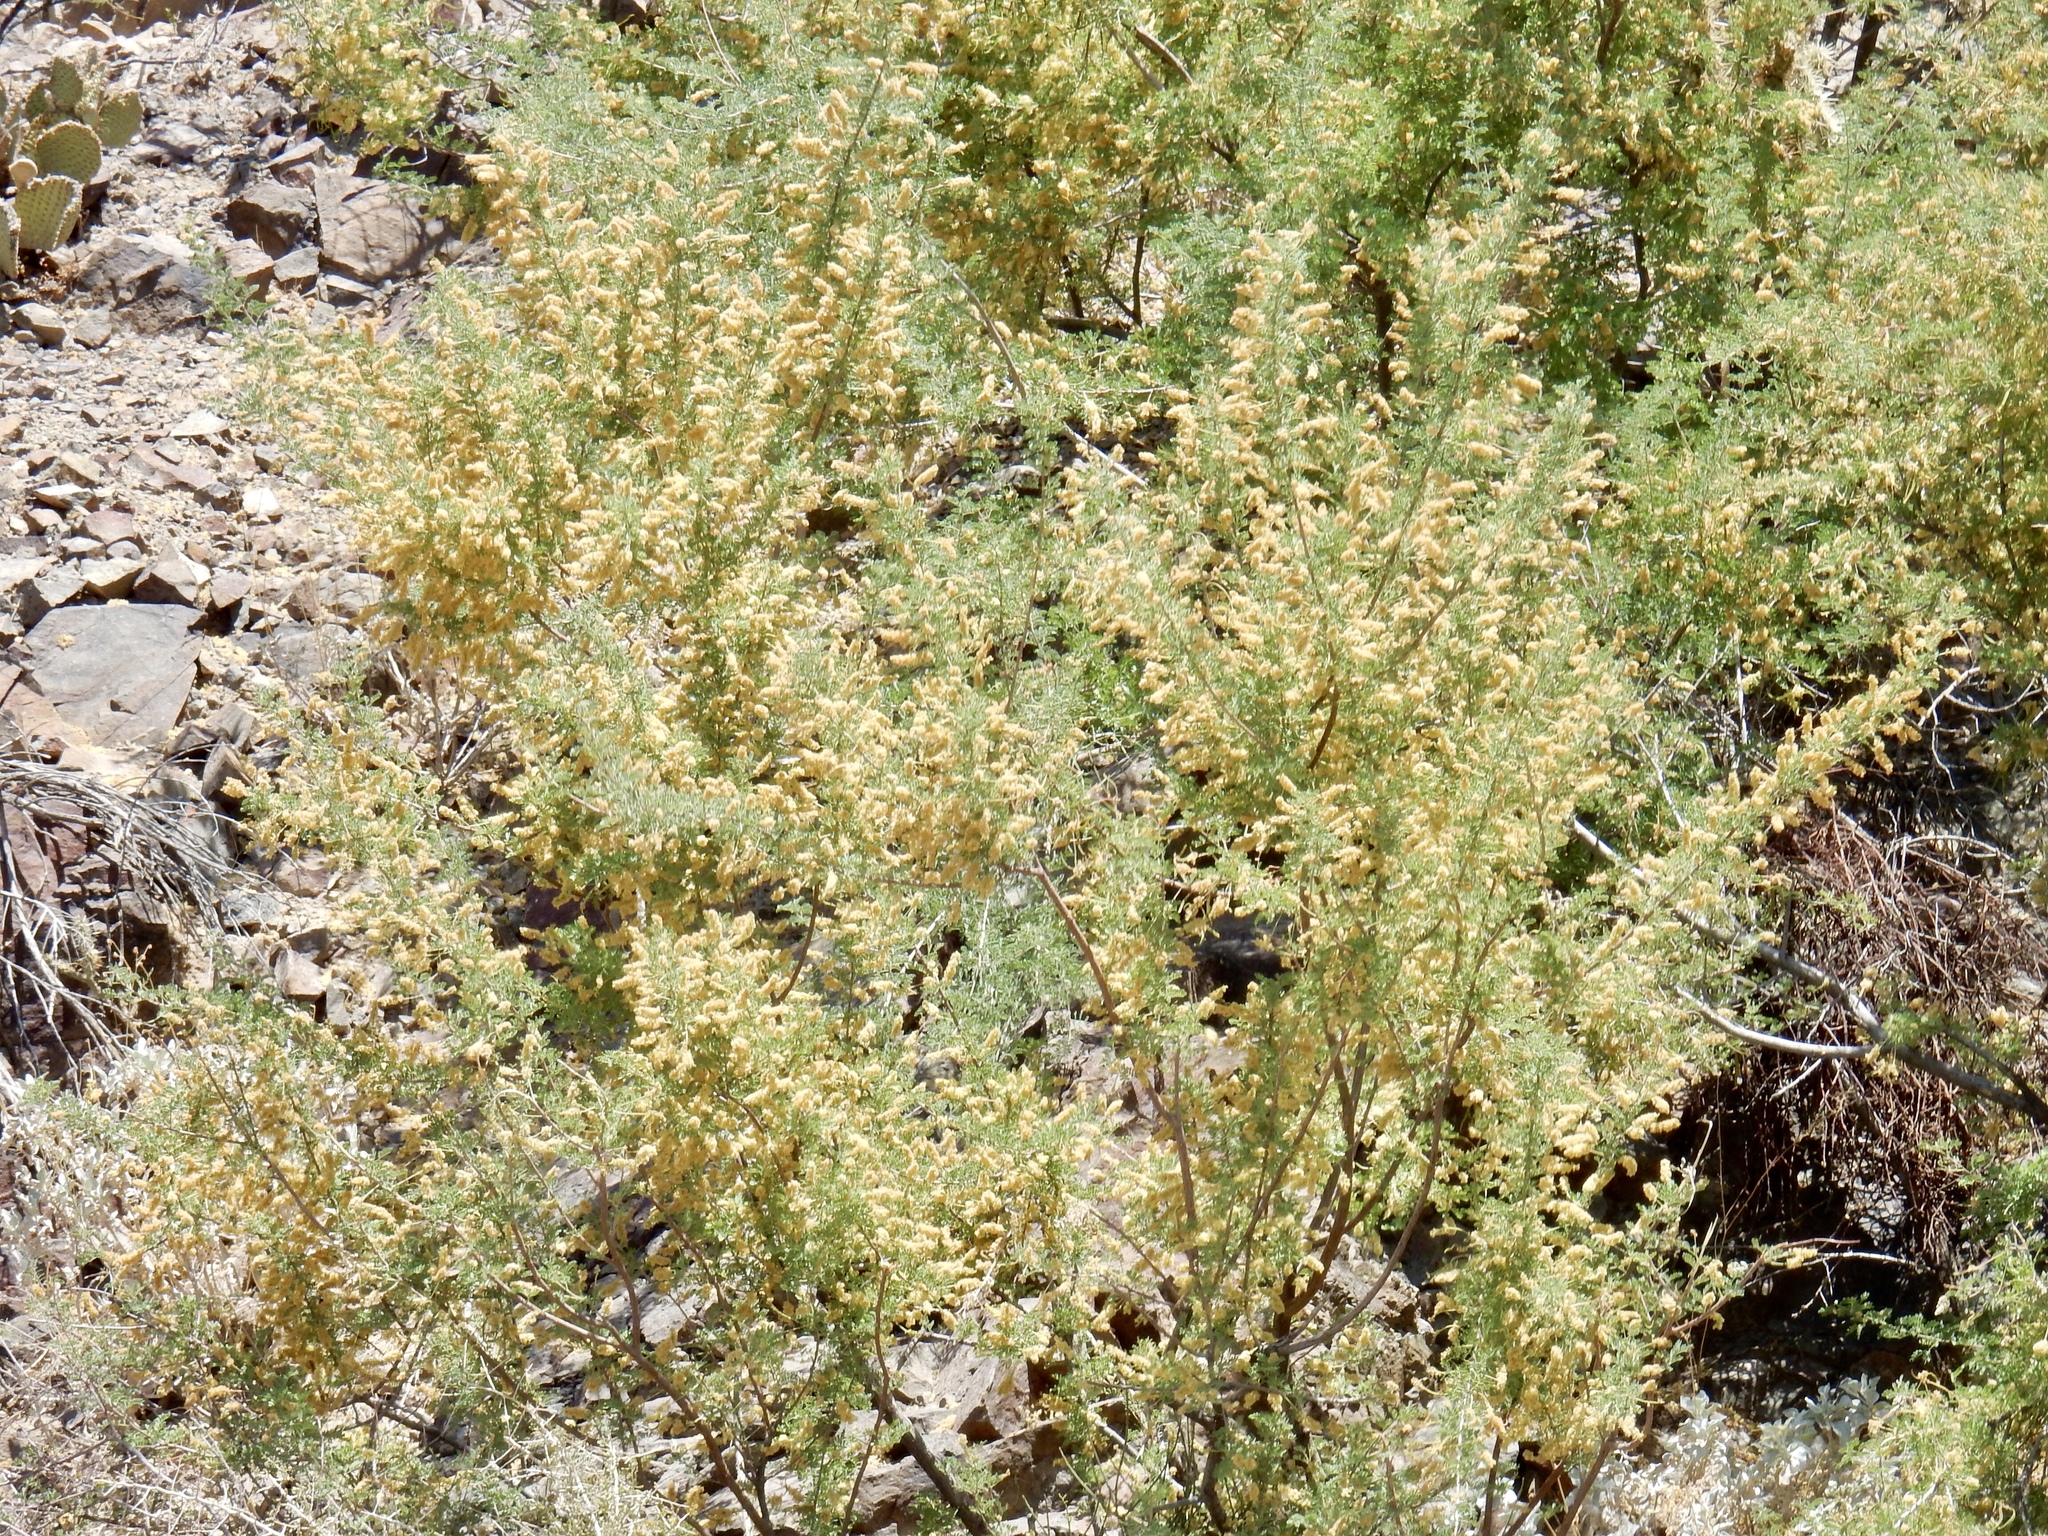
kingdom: Plantae
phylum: Tracheophyta
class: Magnoliopsida
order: Fabales
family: Fabaceae
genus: Senegalia
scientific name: Senegalia greggii
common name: Texas-mimosa
